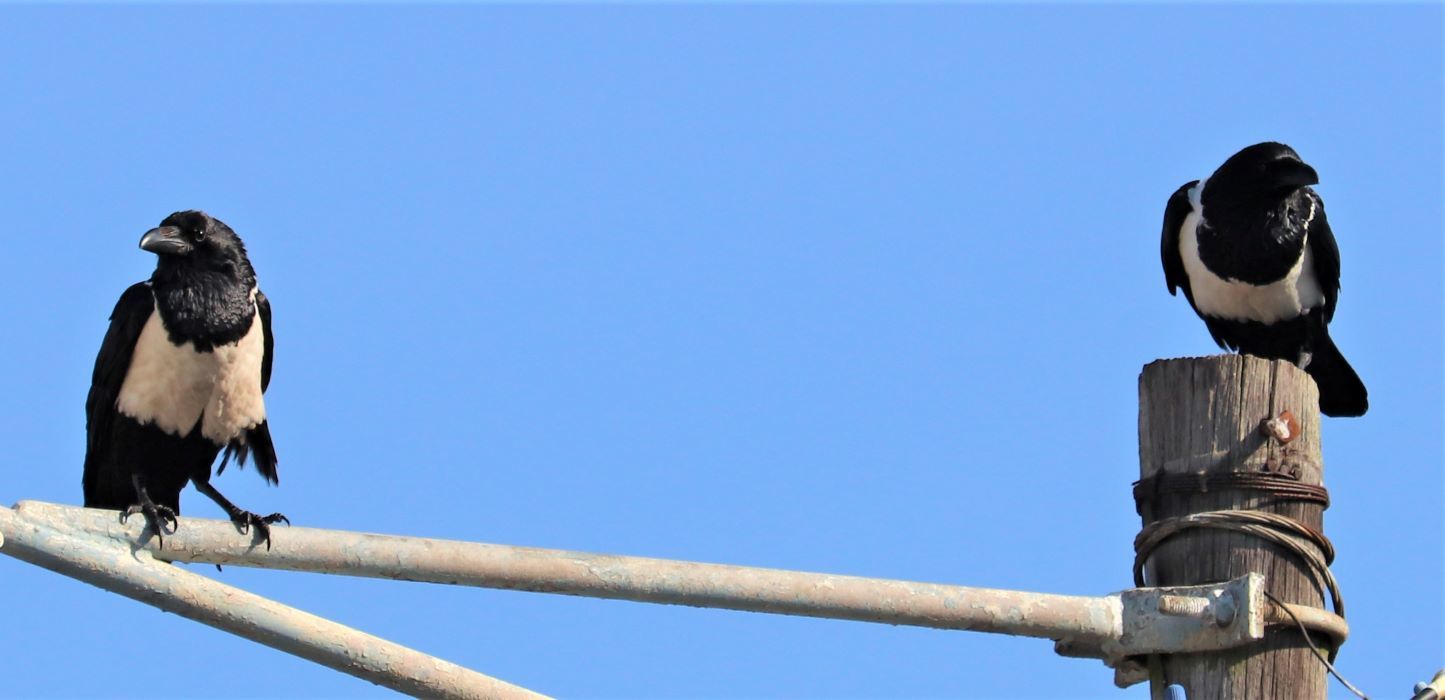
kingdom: Animalia
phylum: Chordata
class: Aves
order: Passeriformes
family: Corvidae
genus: Corvus
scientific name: Corvus albus
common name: Pied crow
